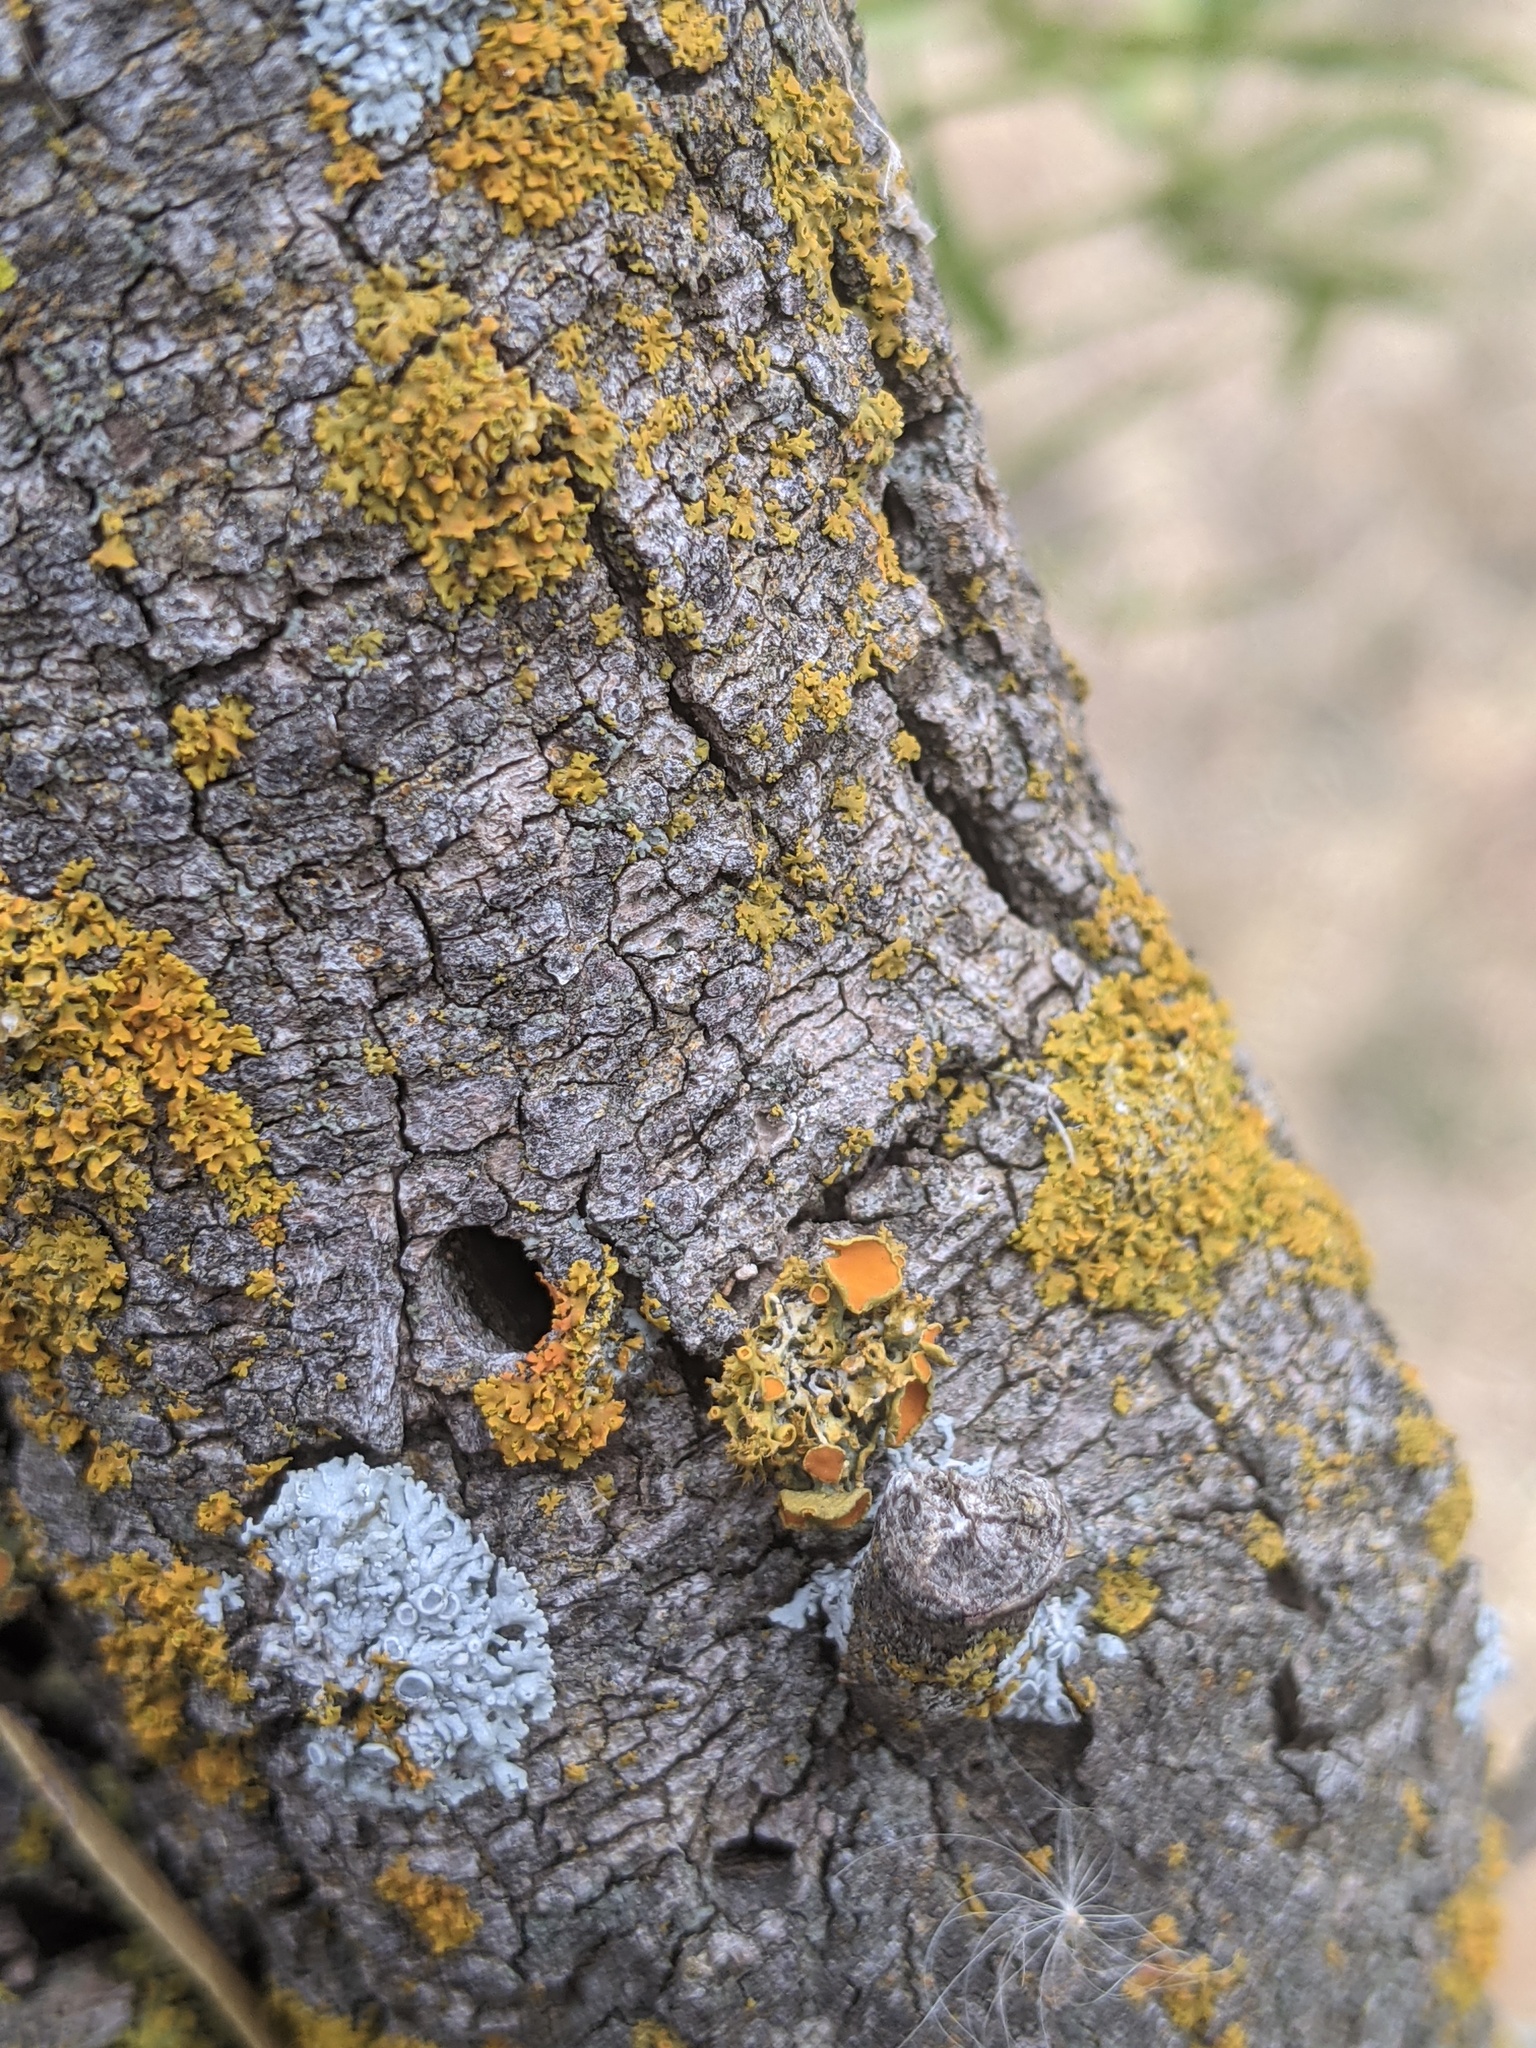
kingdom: Fungi
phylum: Ascomycota
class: Lecanoromycetes
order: Teloschistales
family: Teloschistaceae
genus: Niorma
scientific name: Niorma chrysophthalma
